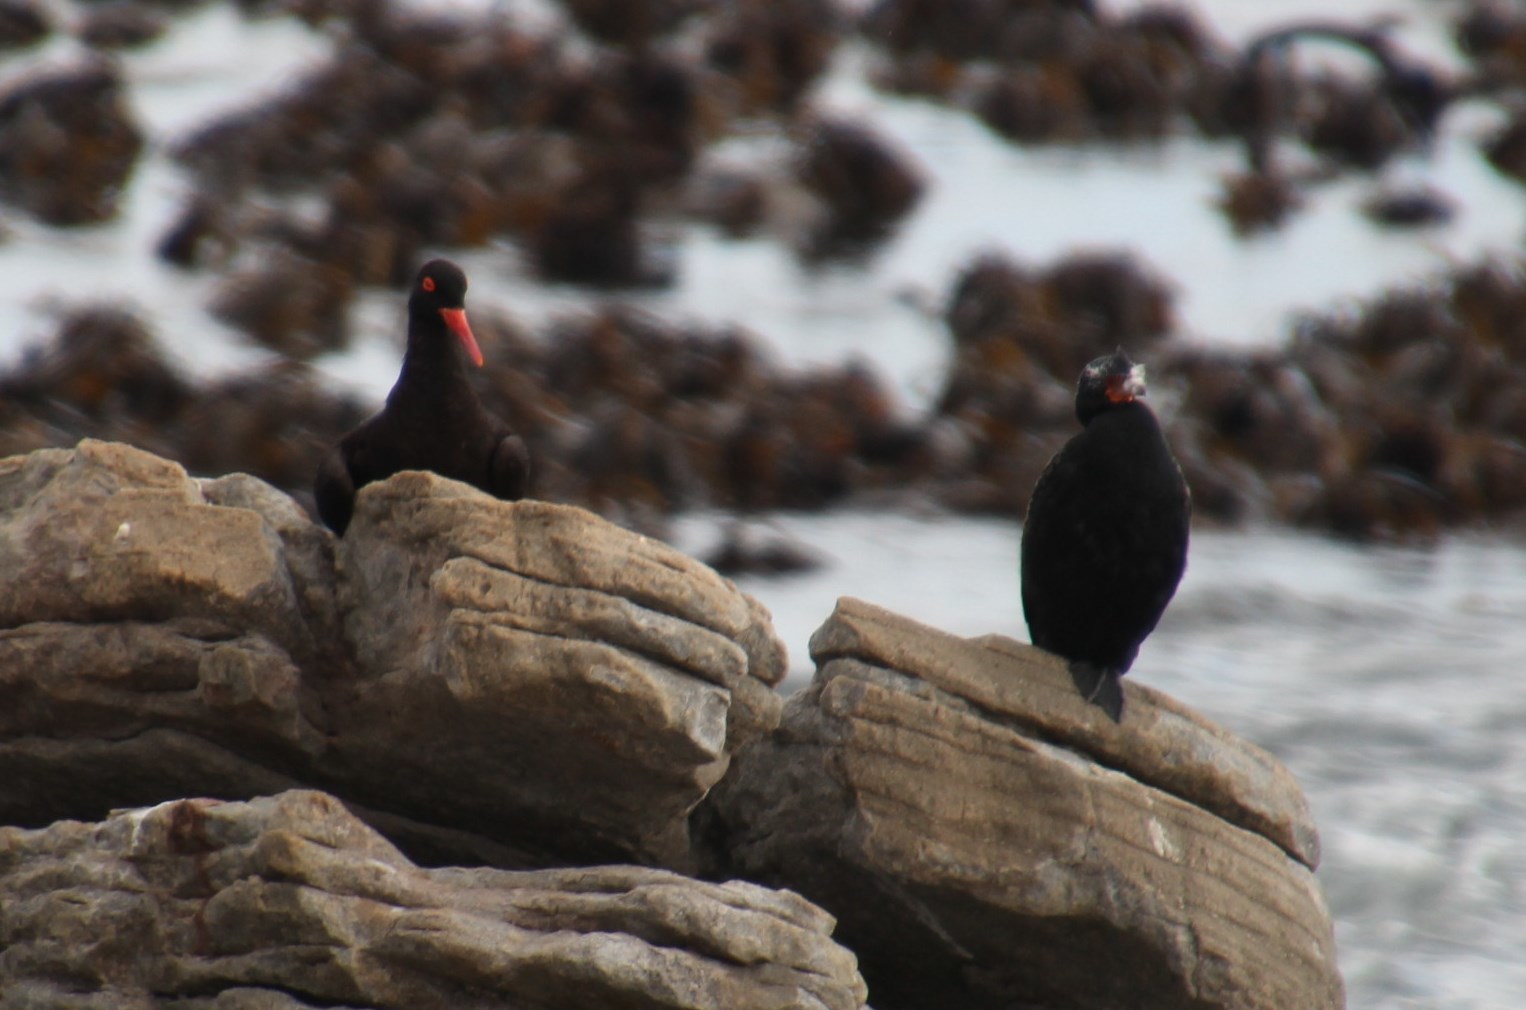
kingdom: Animalia
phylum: Chordata
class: Aves
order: Charadriiformes
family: Haematopodidae
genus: Haematopus
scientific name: Haematopus moquini
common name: African oystercatcher
